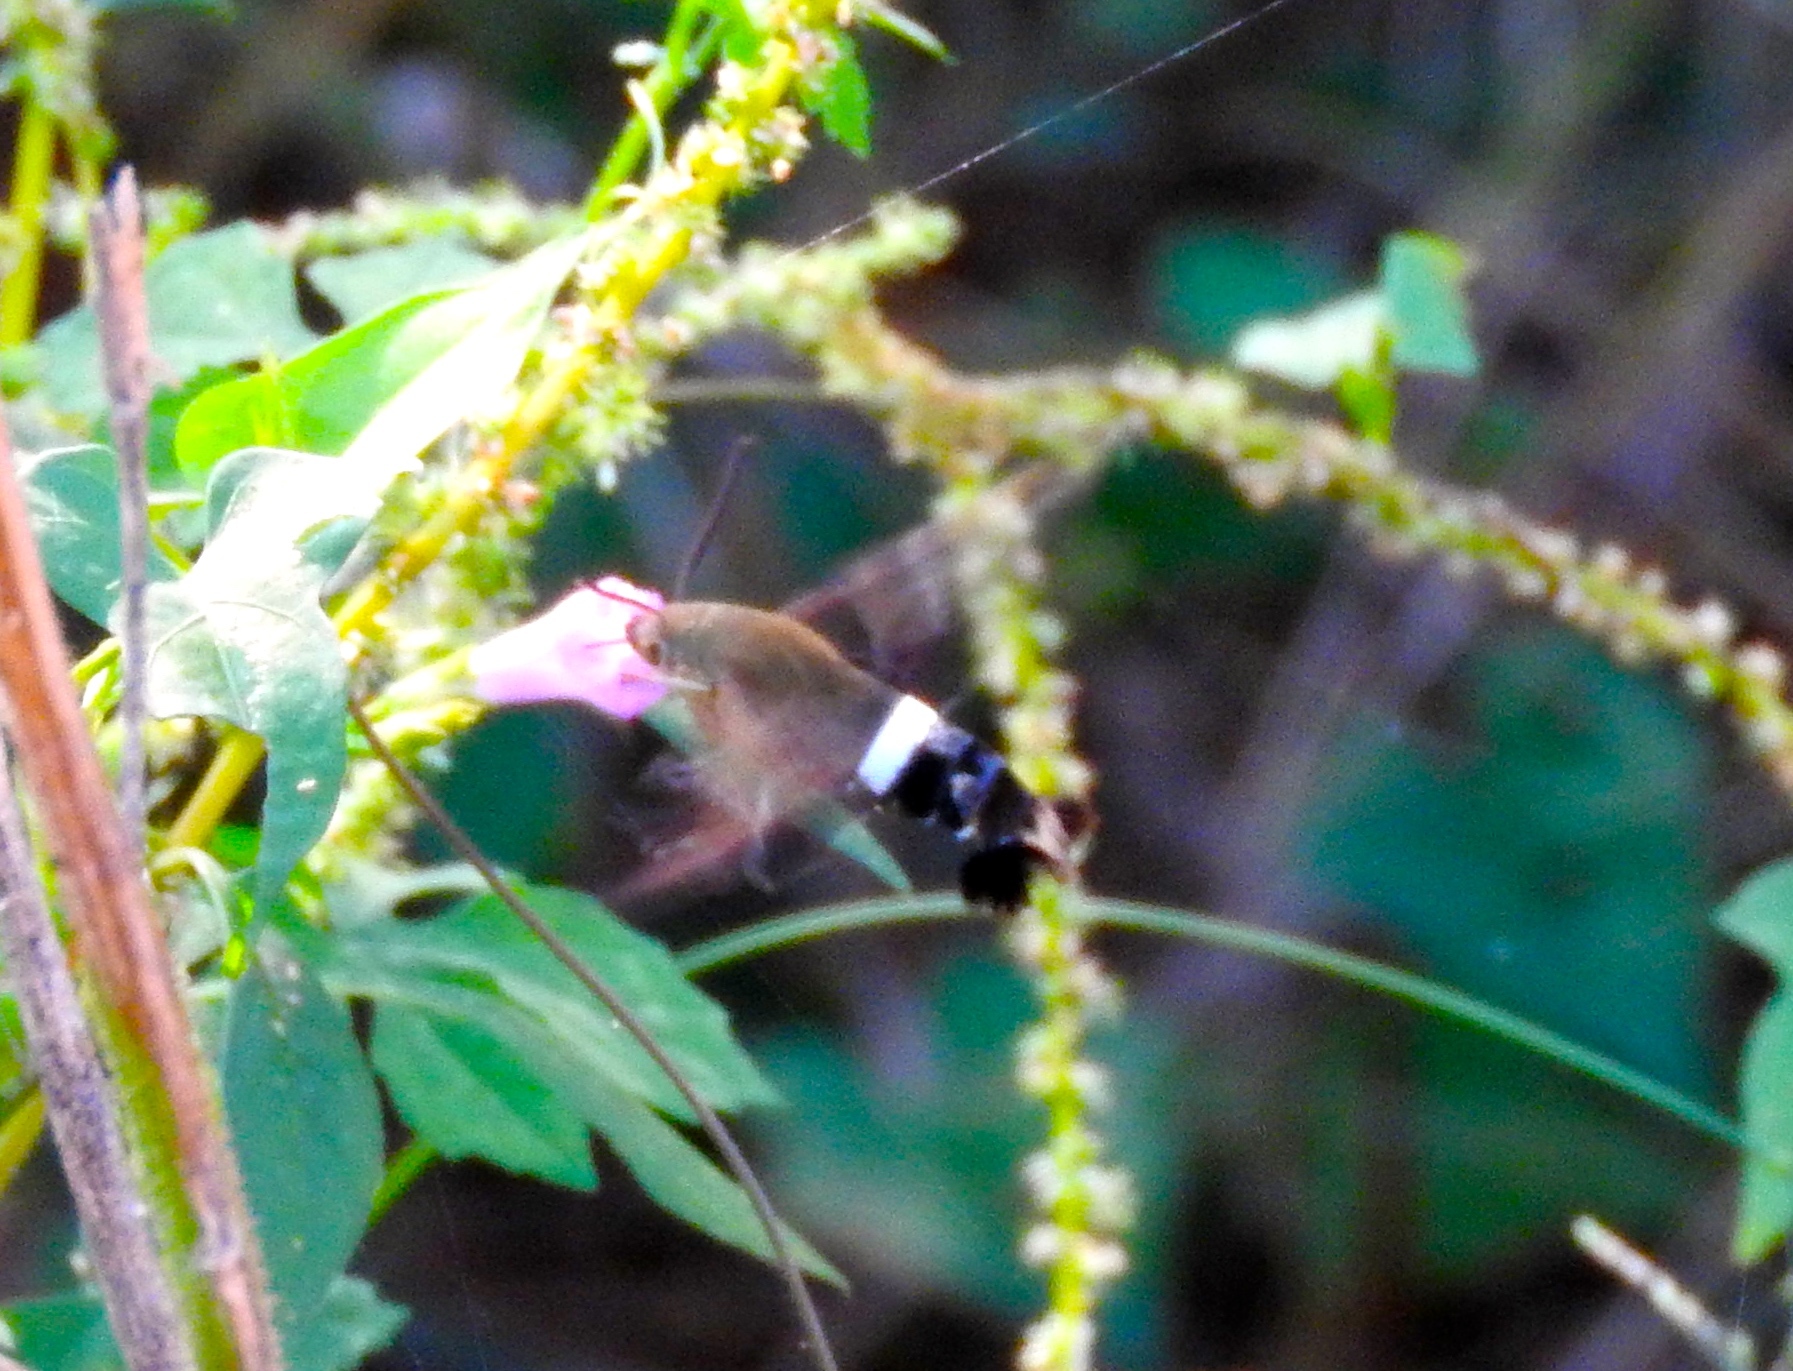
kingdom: Animalia
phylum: Arthropoda
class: Insecta
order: Lepidoptera
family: Sphingidae
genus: Aellopos
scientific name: Aellopos
